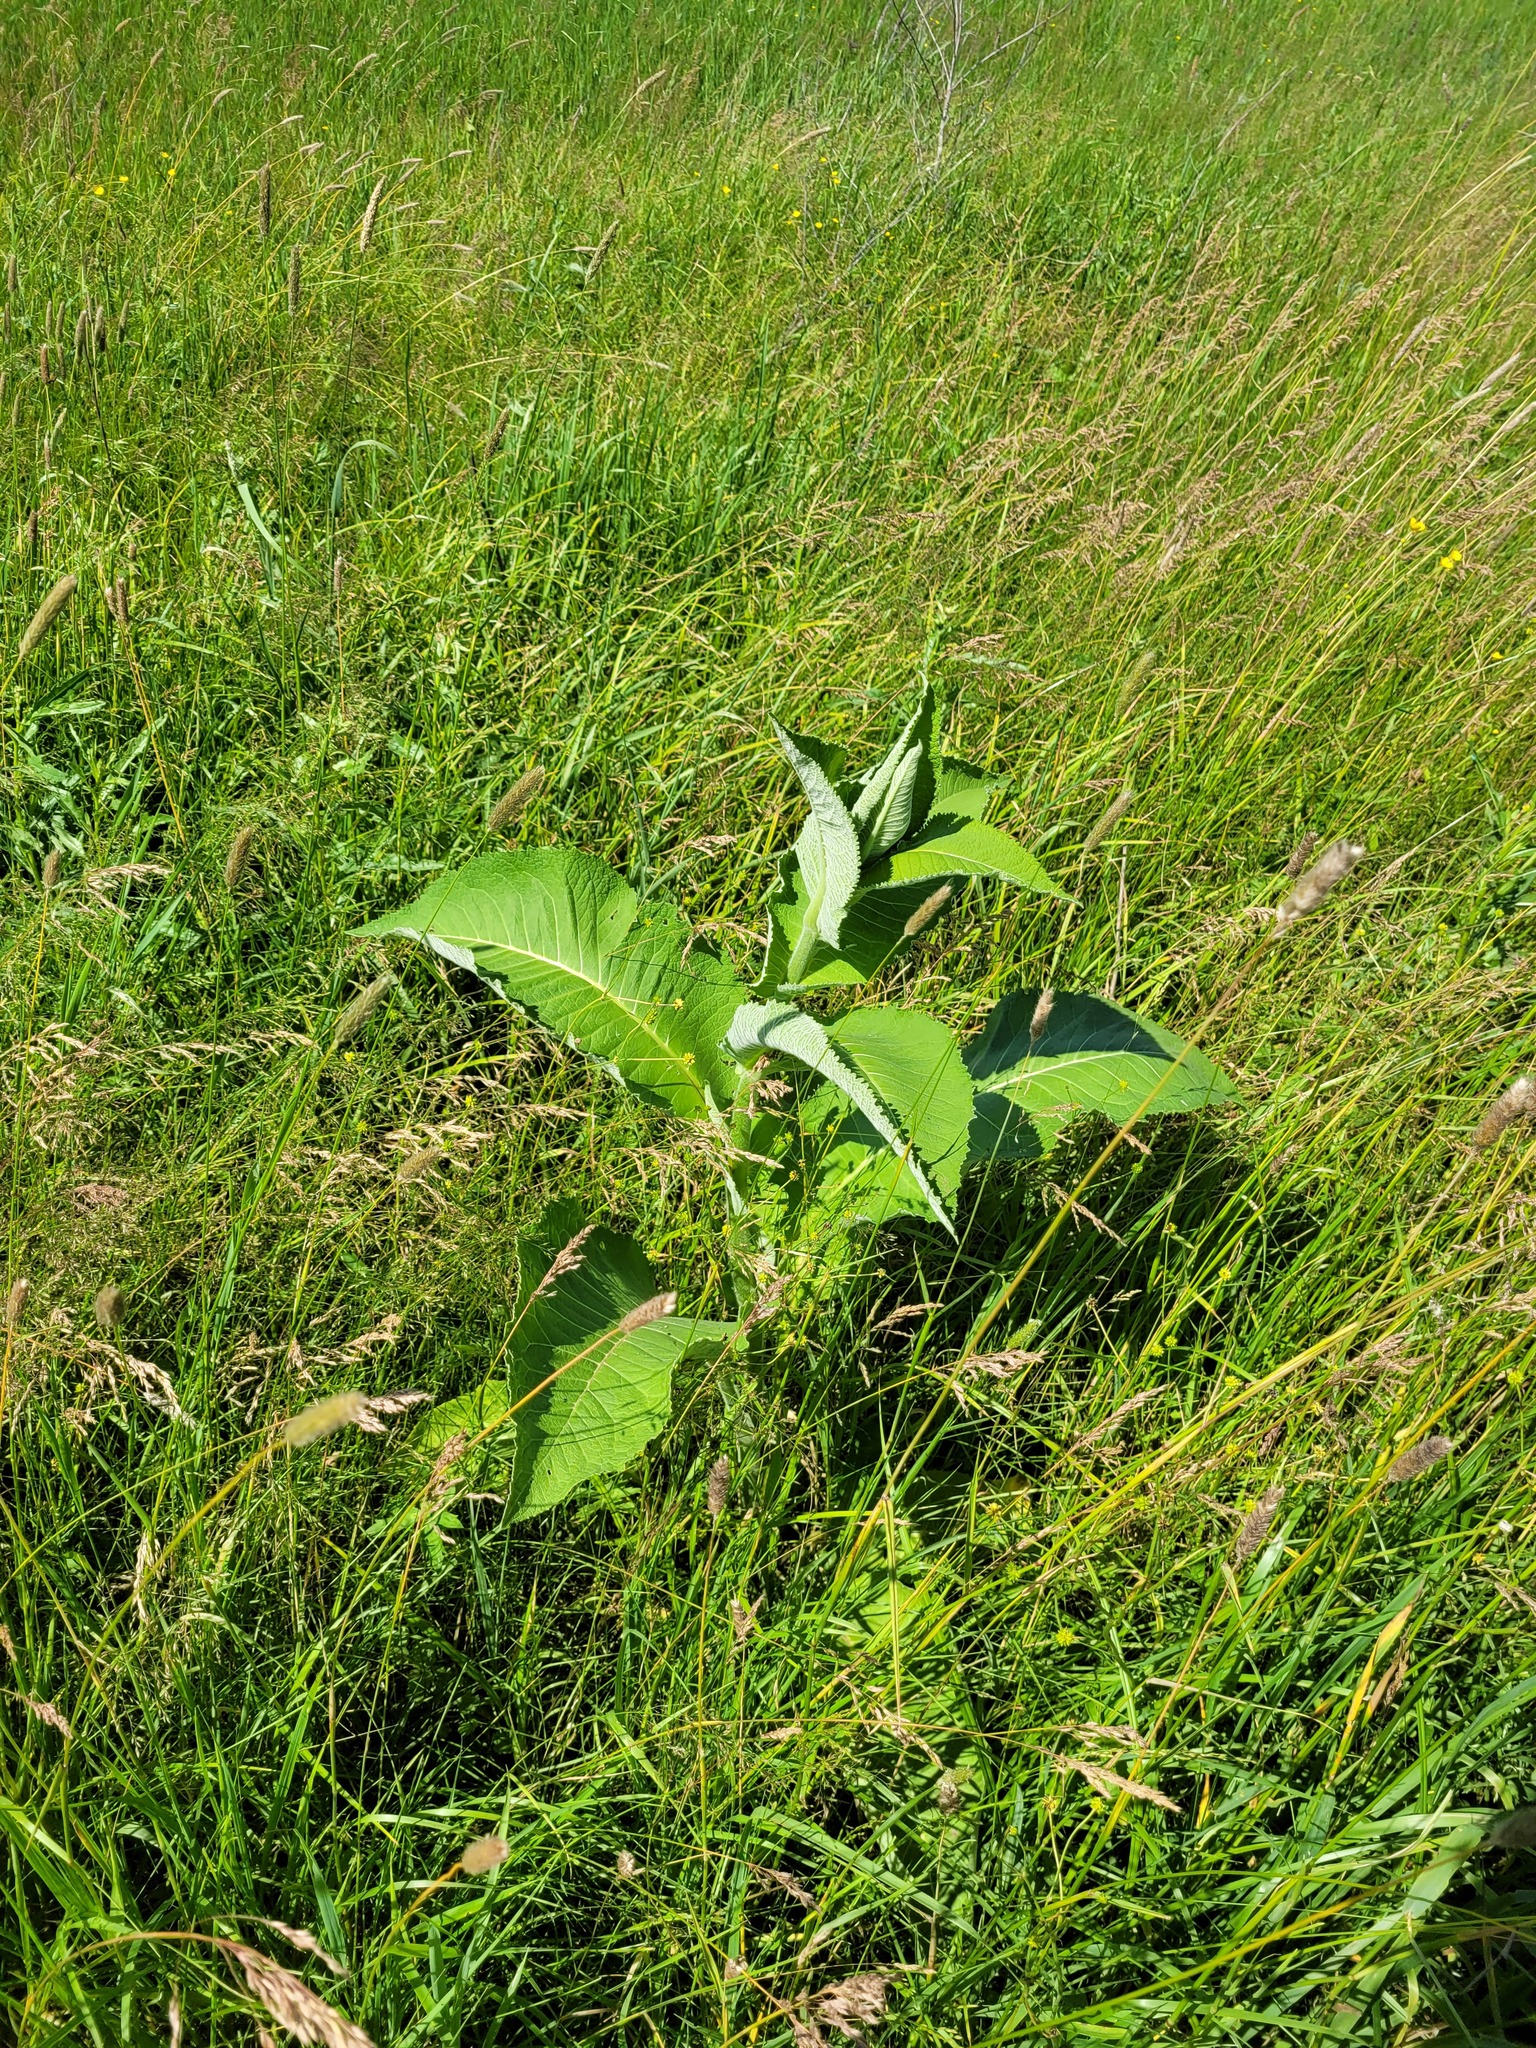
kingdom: Plantae
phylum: Tracheophyta
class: Magnoliopsida
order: Asterales
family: Asteraceae
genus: Inula
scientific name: Inula helenium
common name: Elecampane
